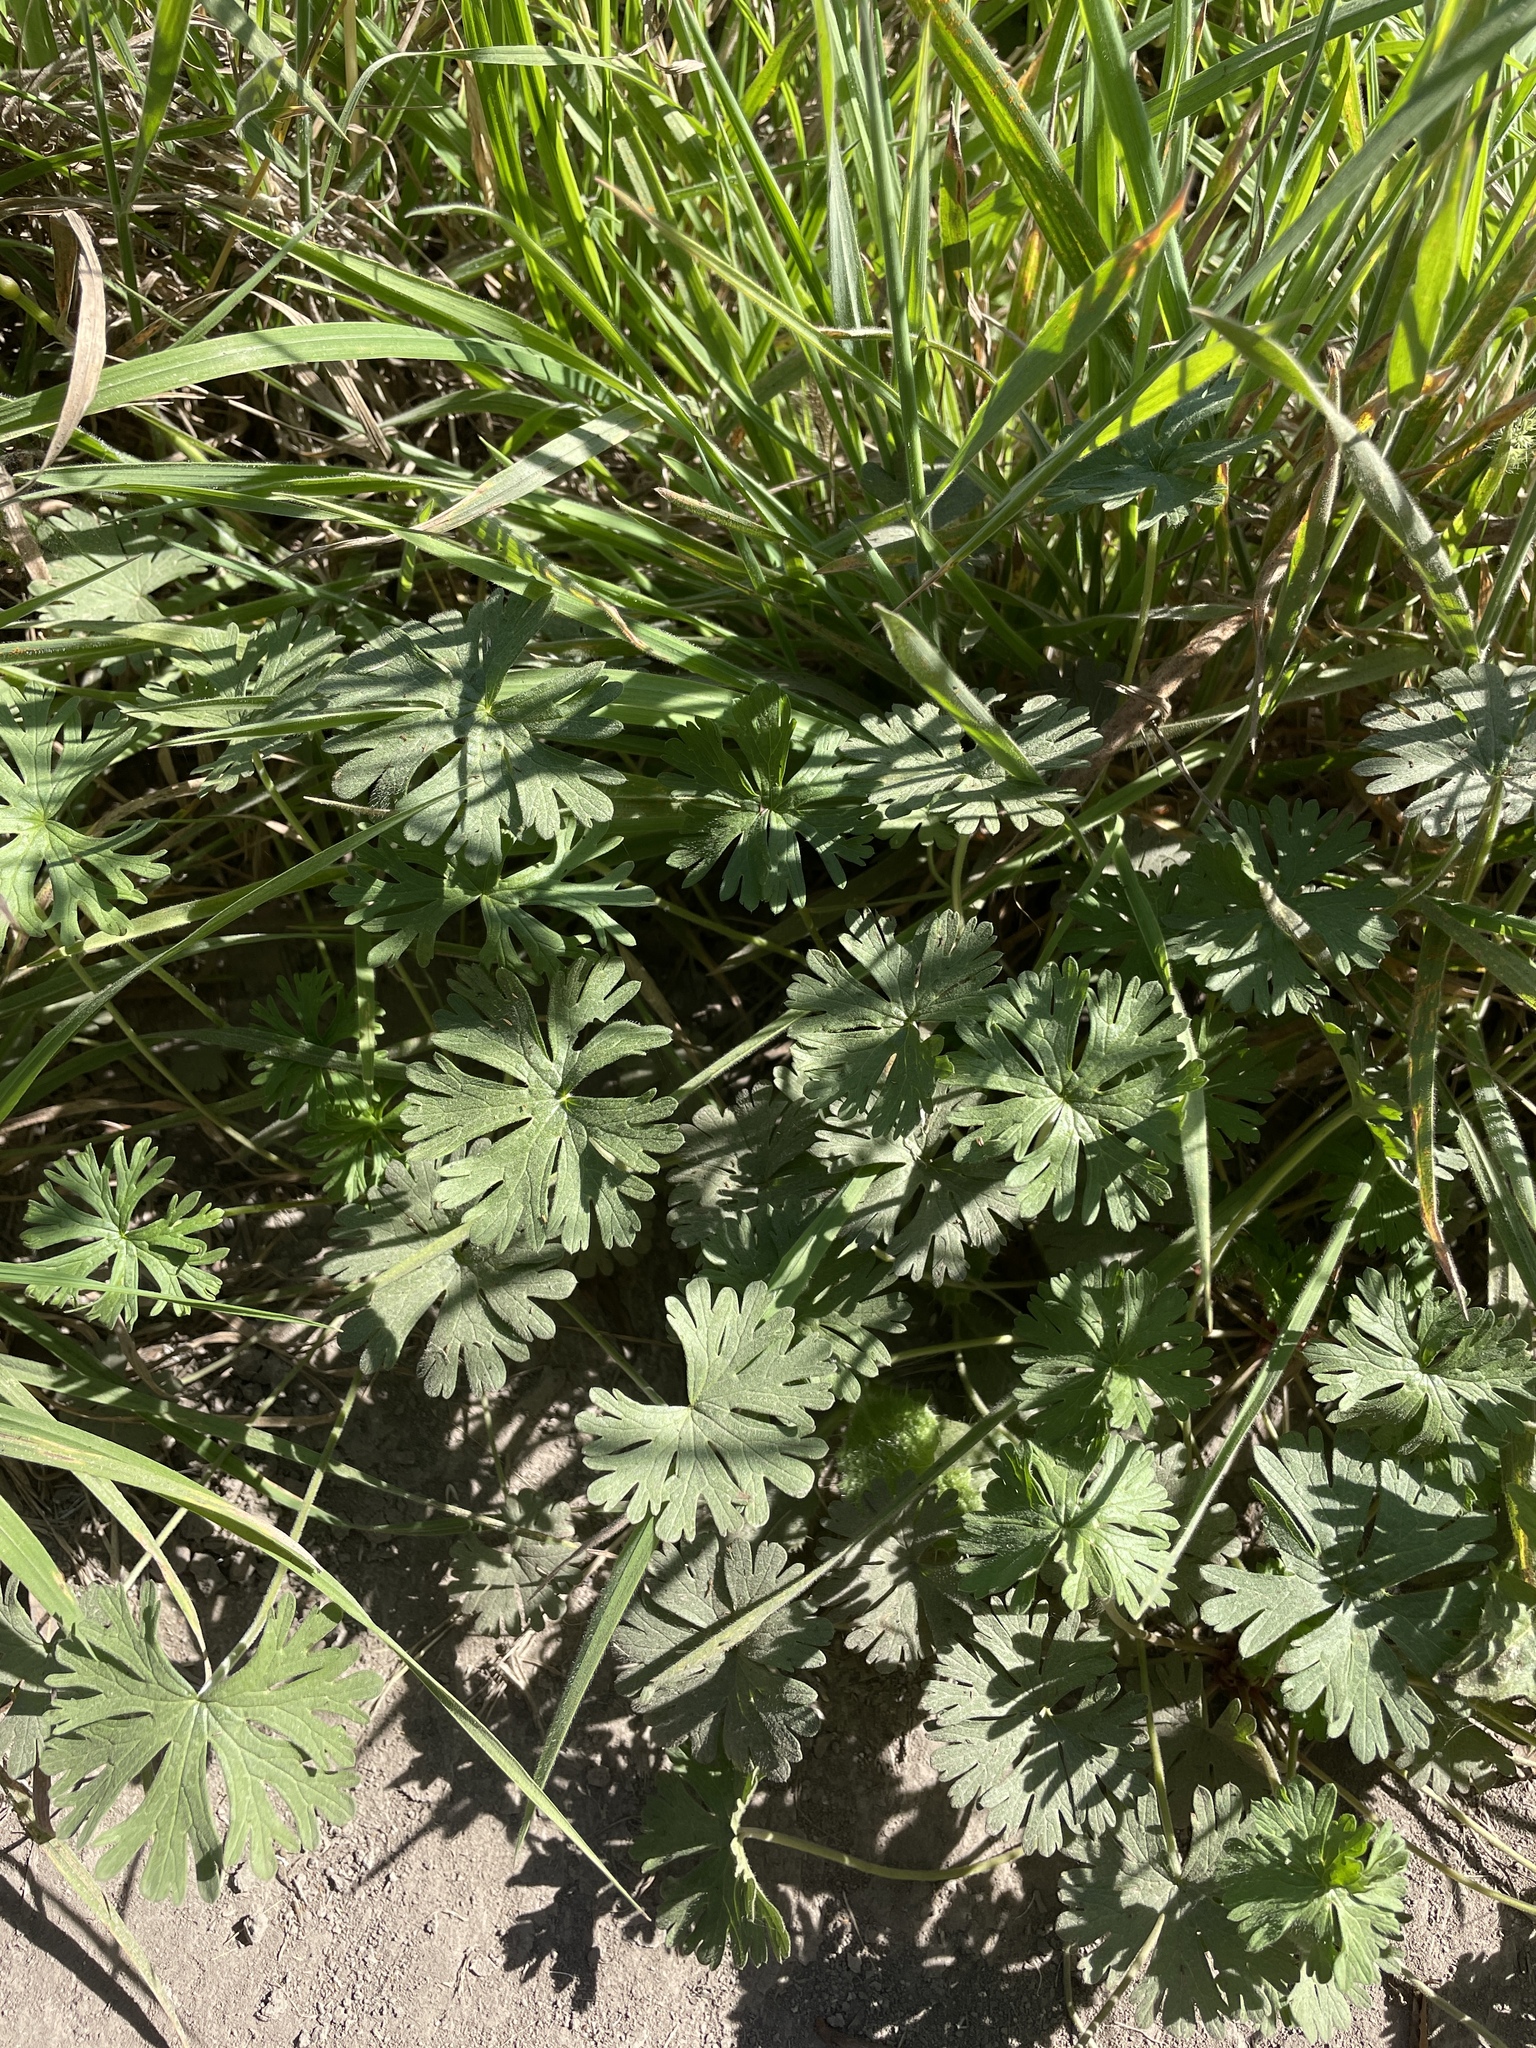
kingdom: Plantae
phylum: Tracheophyta
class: Magnoliopsida
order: Geraniales
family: Geraniaceae
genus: Geranium
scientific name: Geranium
